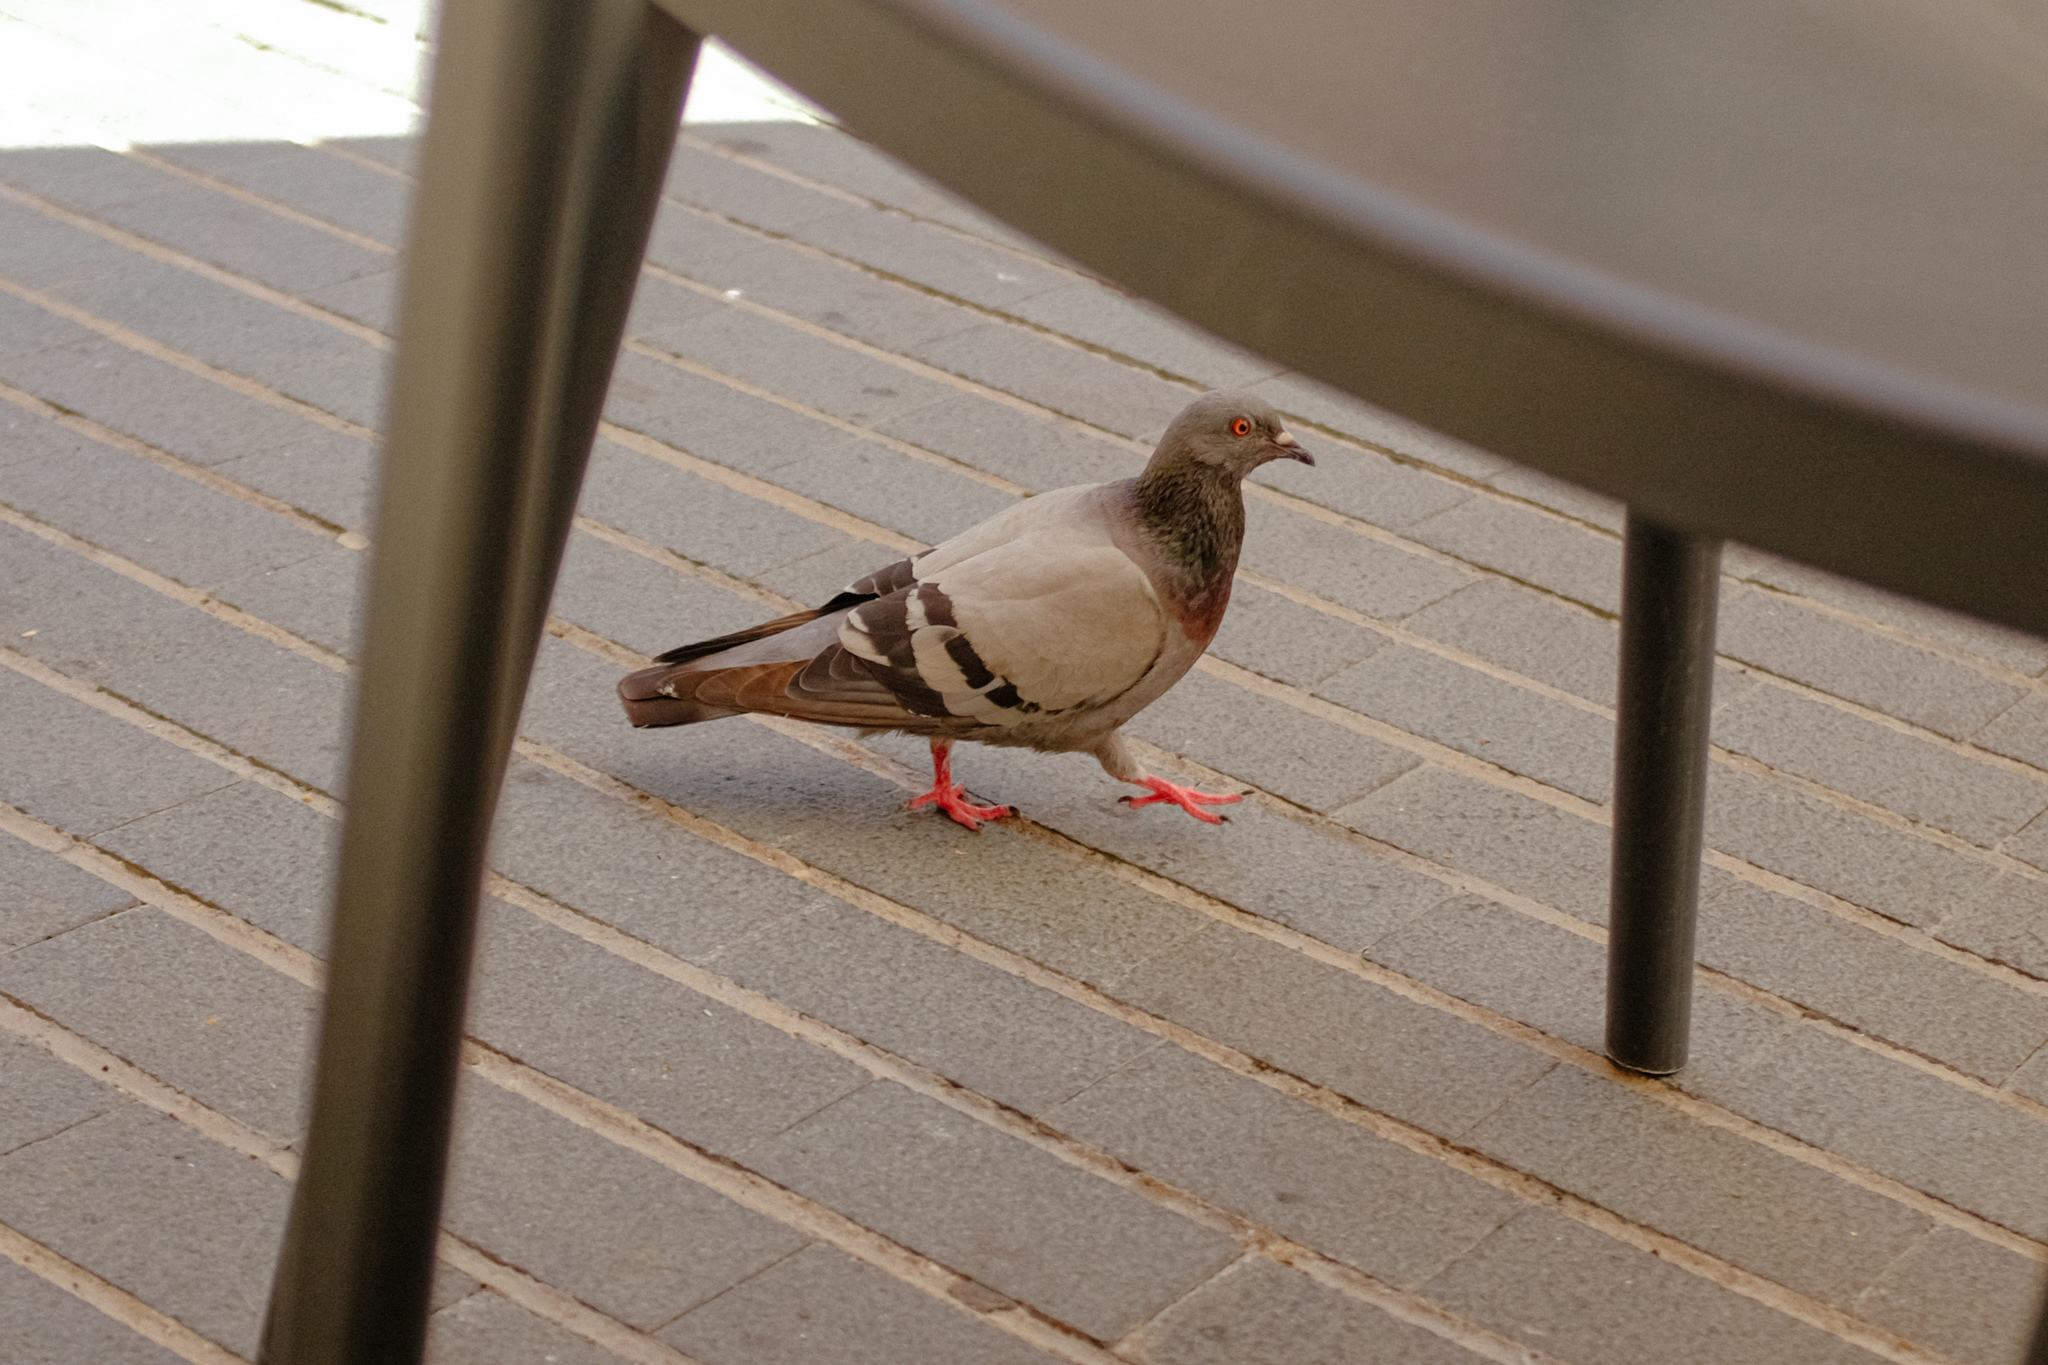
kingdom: Animalia
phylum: Chordata
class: Aves
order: Columbiformes
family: Columbidae
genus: Columba
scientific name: Columba livia
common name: Rock pigeon
